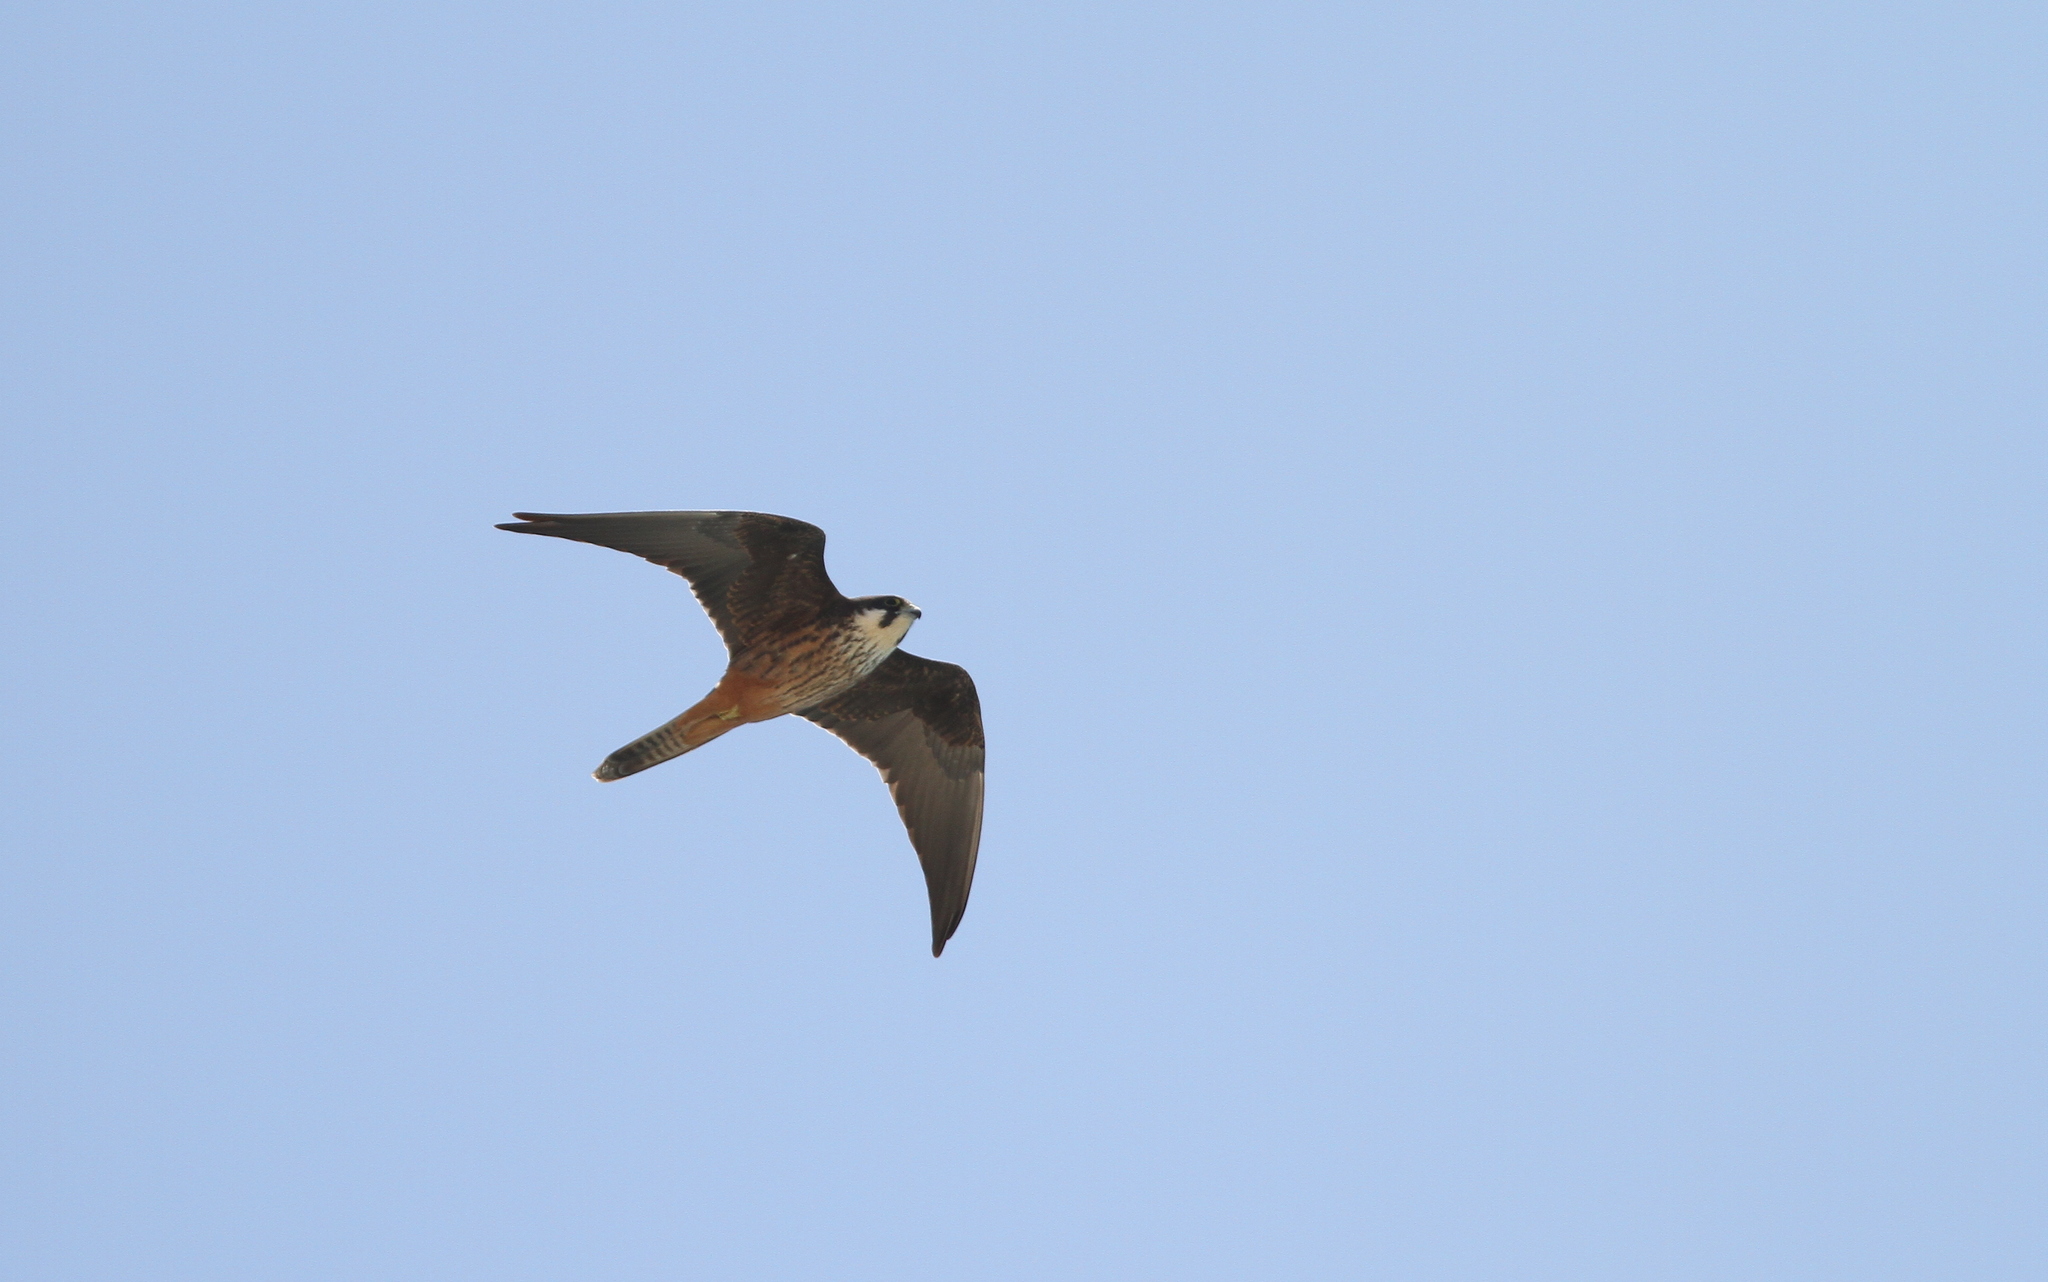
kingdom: Animalia
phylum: Chordata
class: Aves
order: Falconiformes
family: Falconidae
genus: Falco
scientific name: Falco eleonorae
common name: Eleonora's falcon
